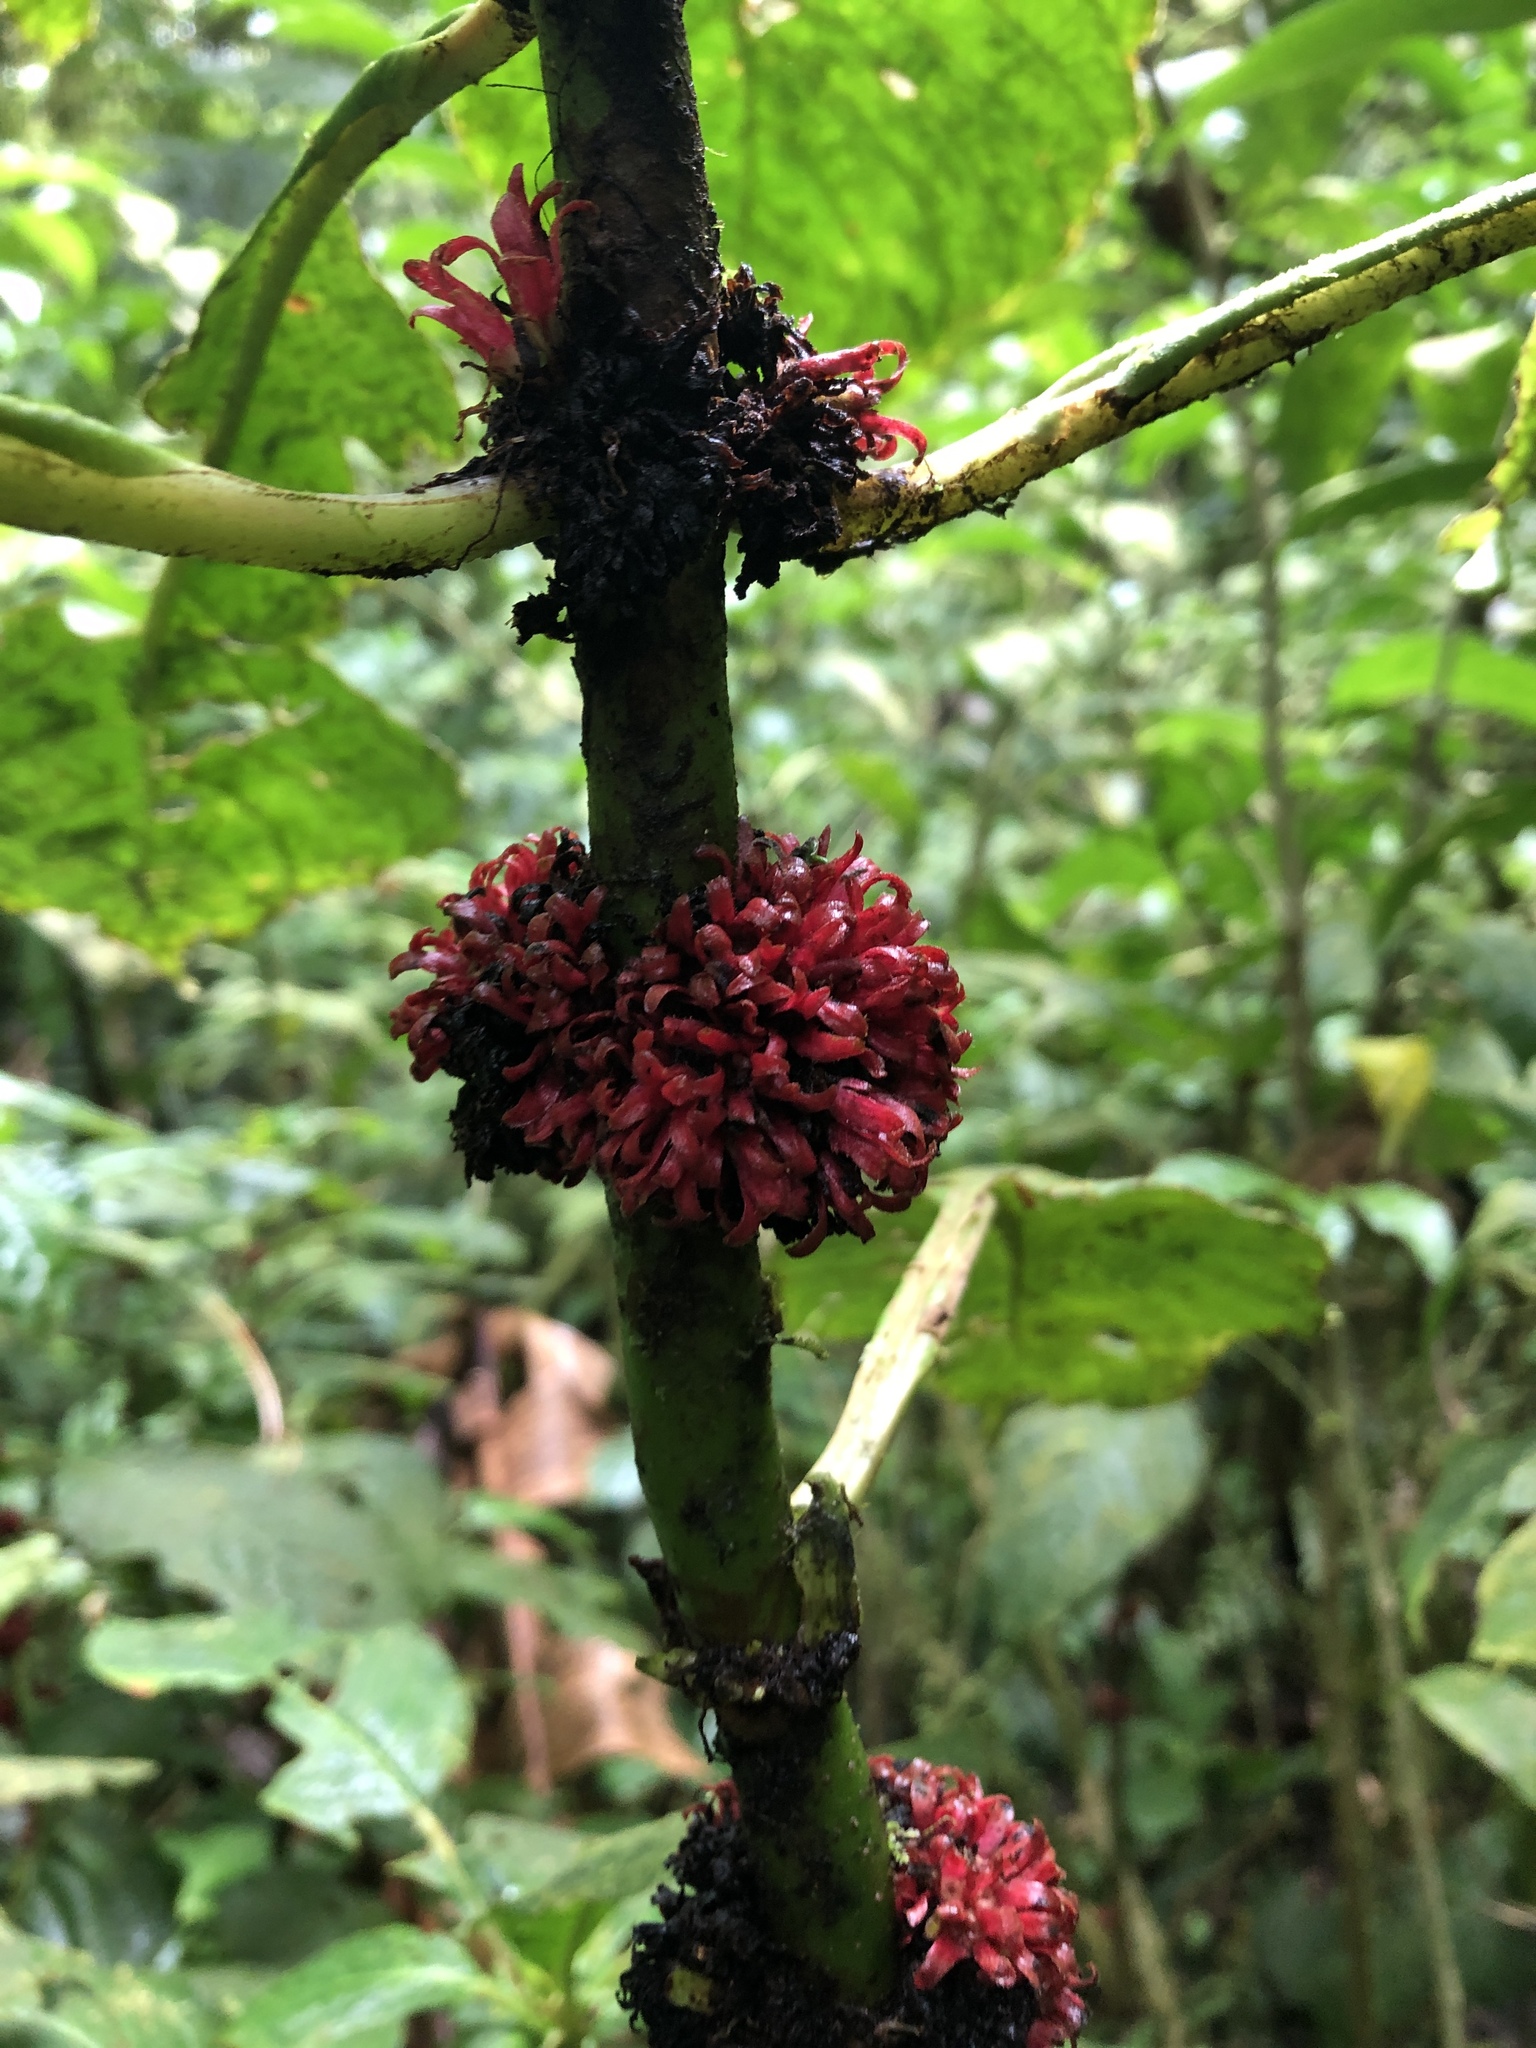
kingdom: Plantae
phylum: Tracheophyta
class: Magnoliopsida
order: Gentianales
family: Rubiaceae
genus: Hoffmannia
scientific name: Hoffmannia congesta
